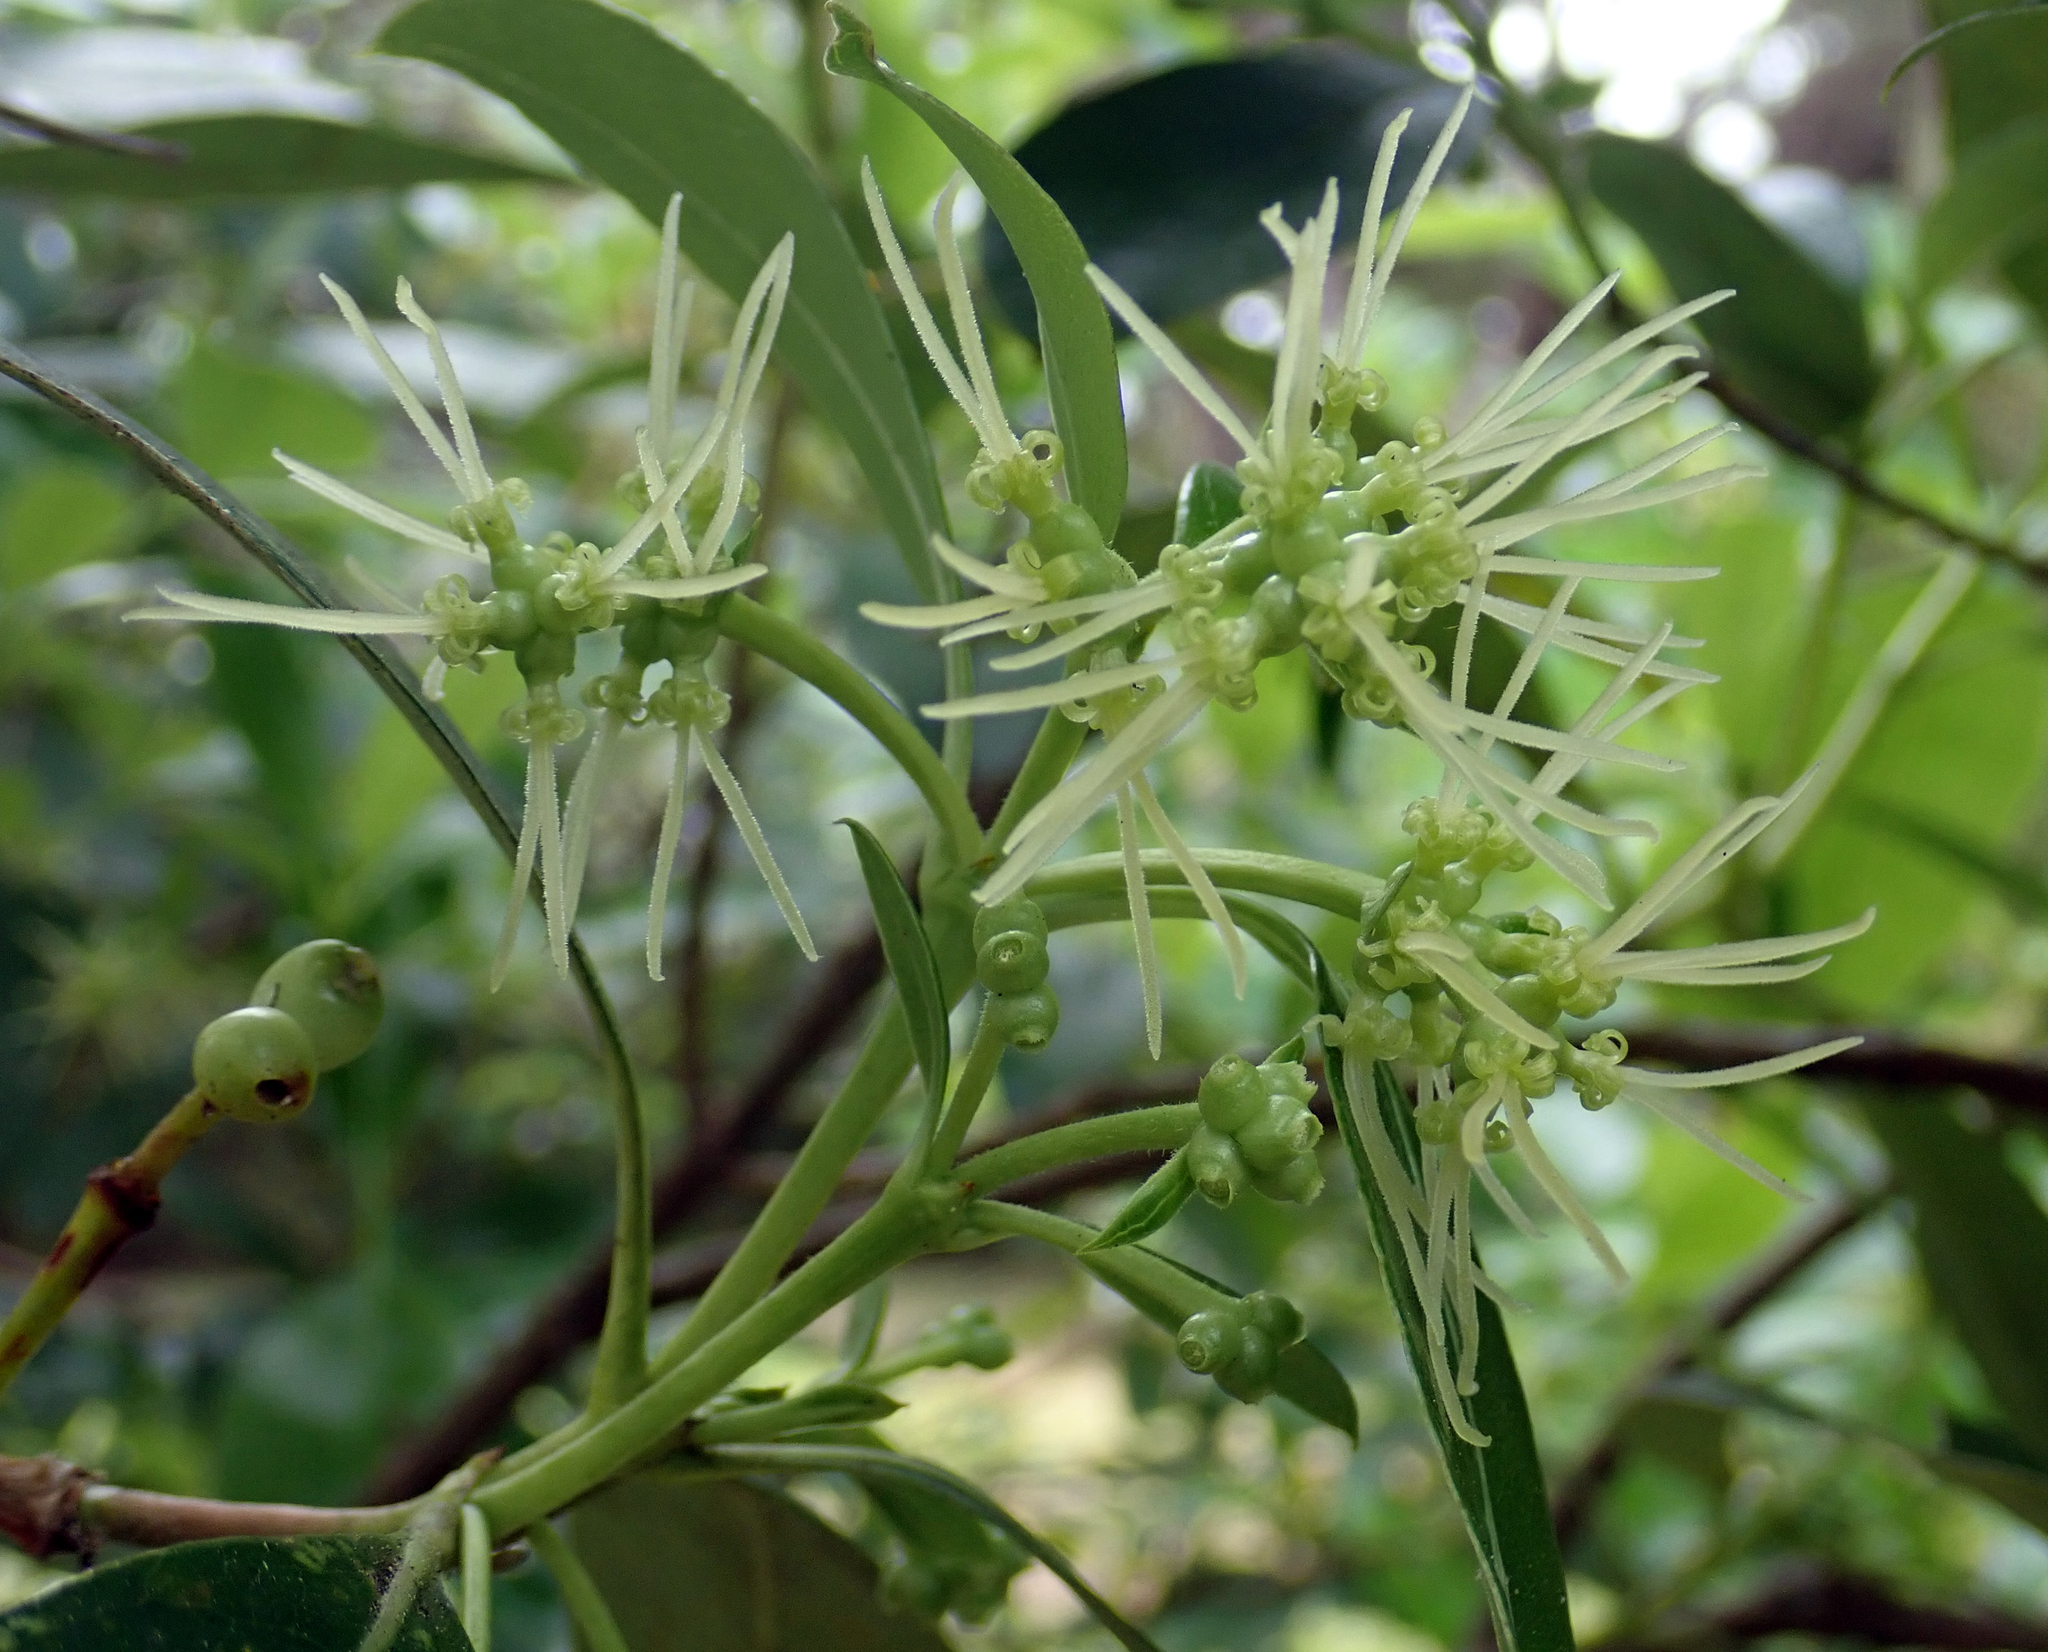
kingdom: Plantae
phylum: Tracheophyta
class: Magnoliopsida
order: Gentianales
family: Rubiaceae
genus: Coprosma
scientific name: Coprosma lucida
